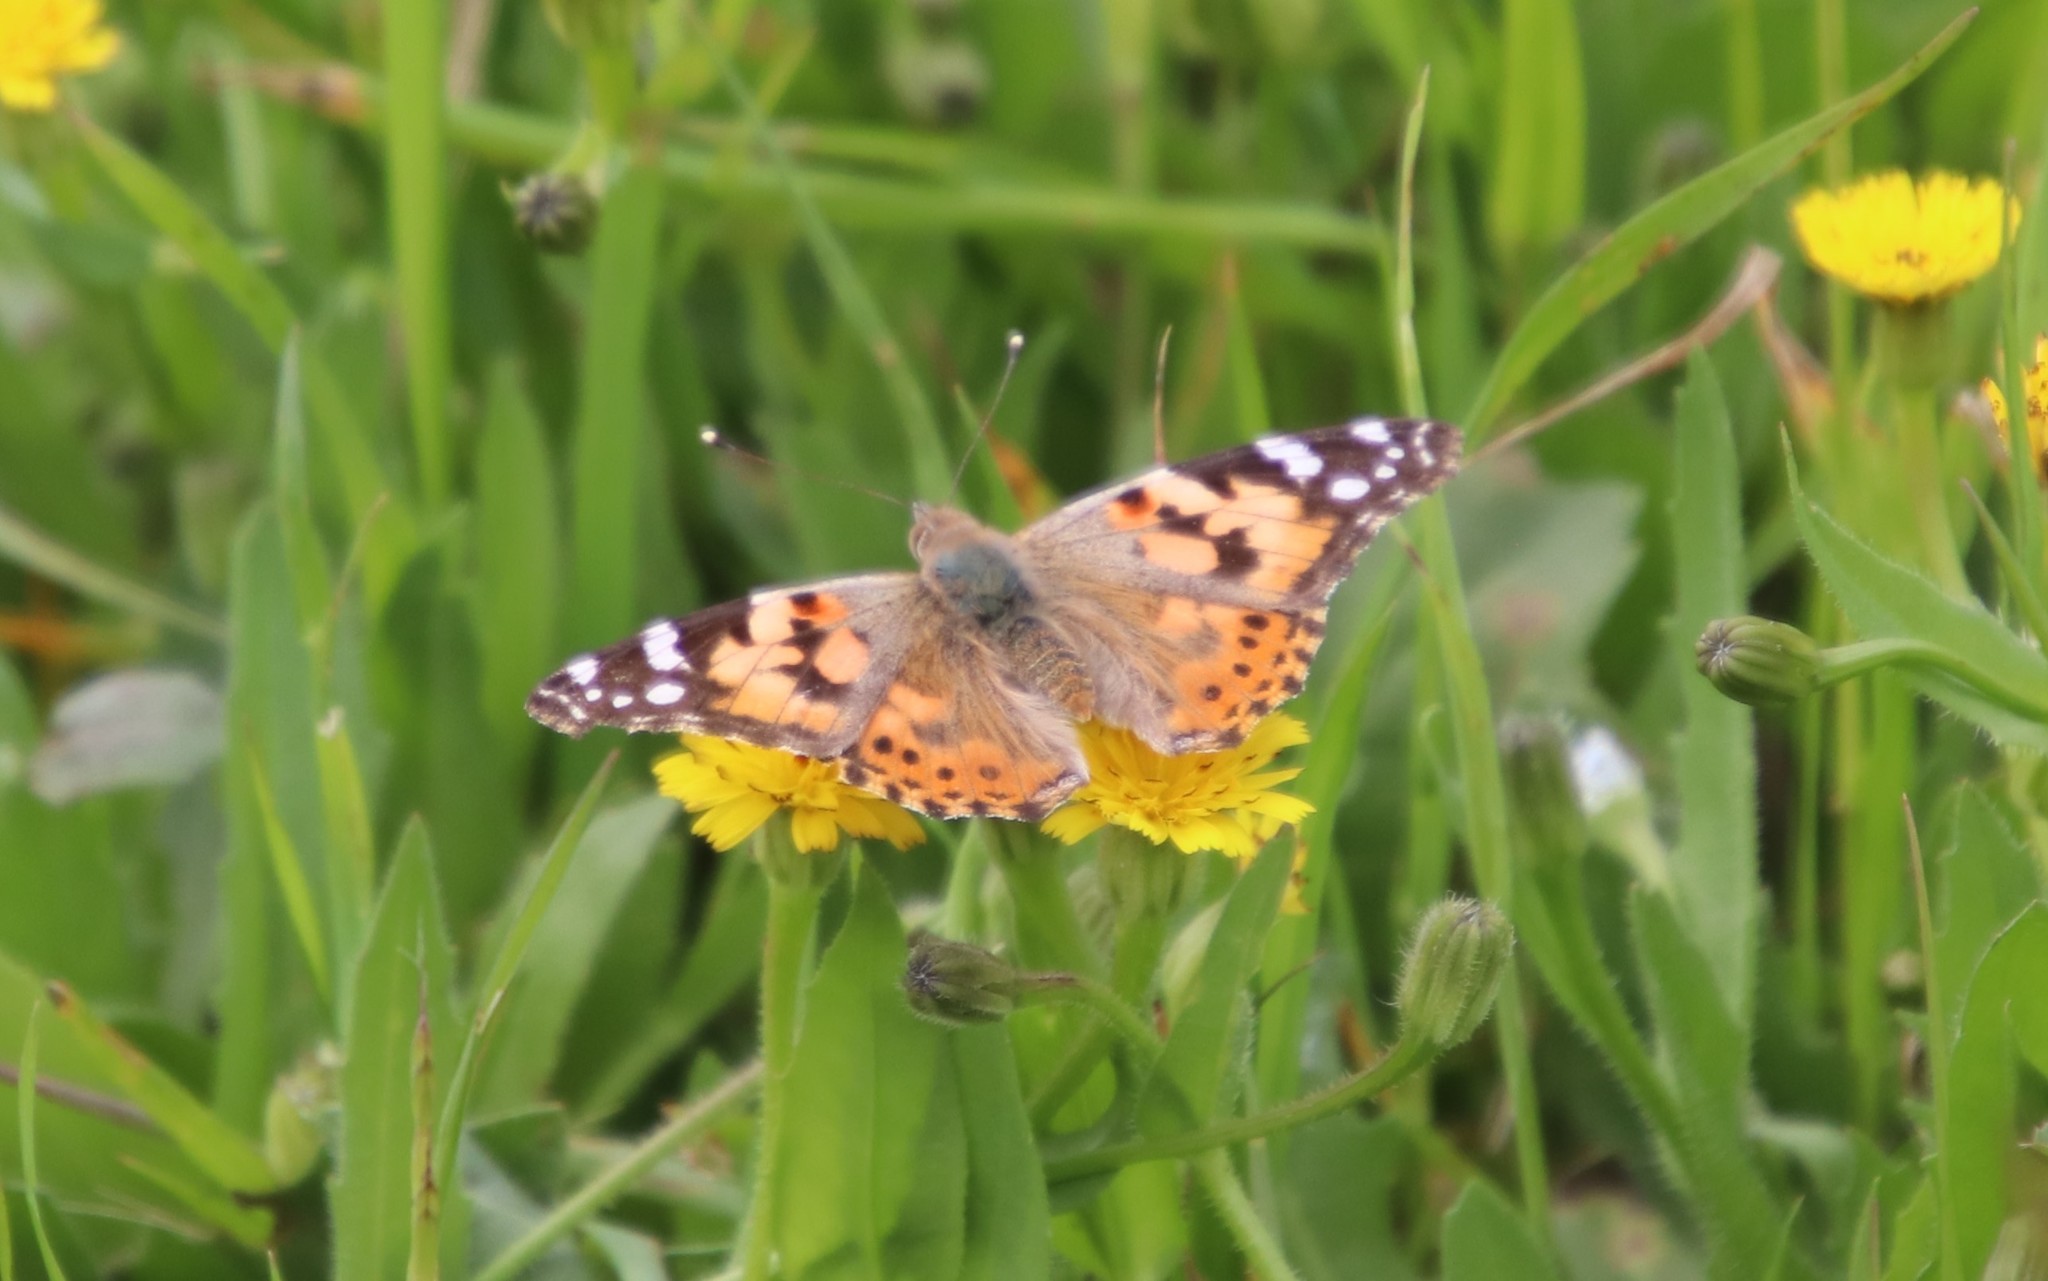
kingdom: Animalia
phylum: Arthropoda
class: Insecta
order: Lepidoptera
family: Nymphalidae
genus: Vanessa
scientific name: Vanessa cardui
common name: Painted lady
